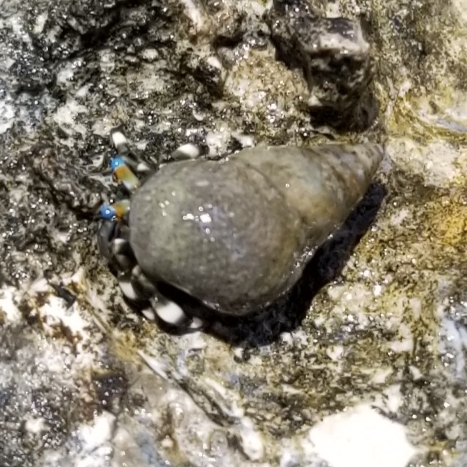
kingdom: Animalia
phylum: Arthropoda
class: Malacostraca
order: Decapoda
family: Diogenidae
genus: Calcinus
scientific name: Calcinus seurati
